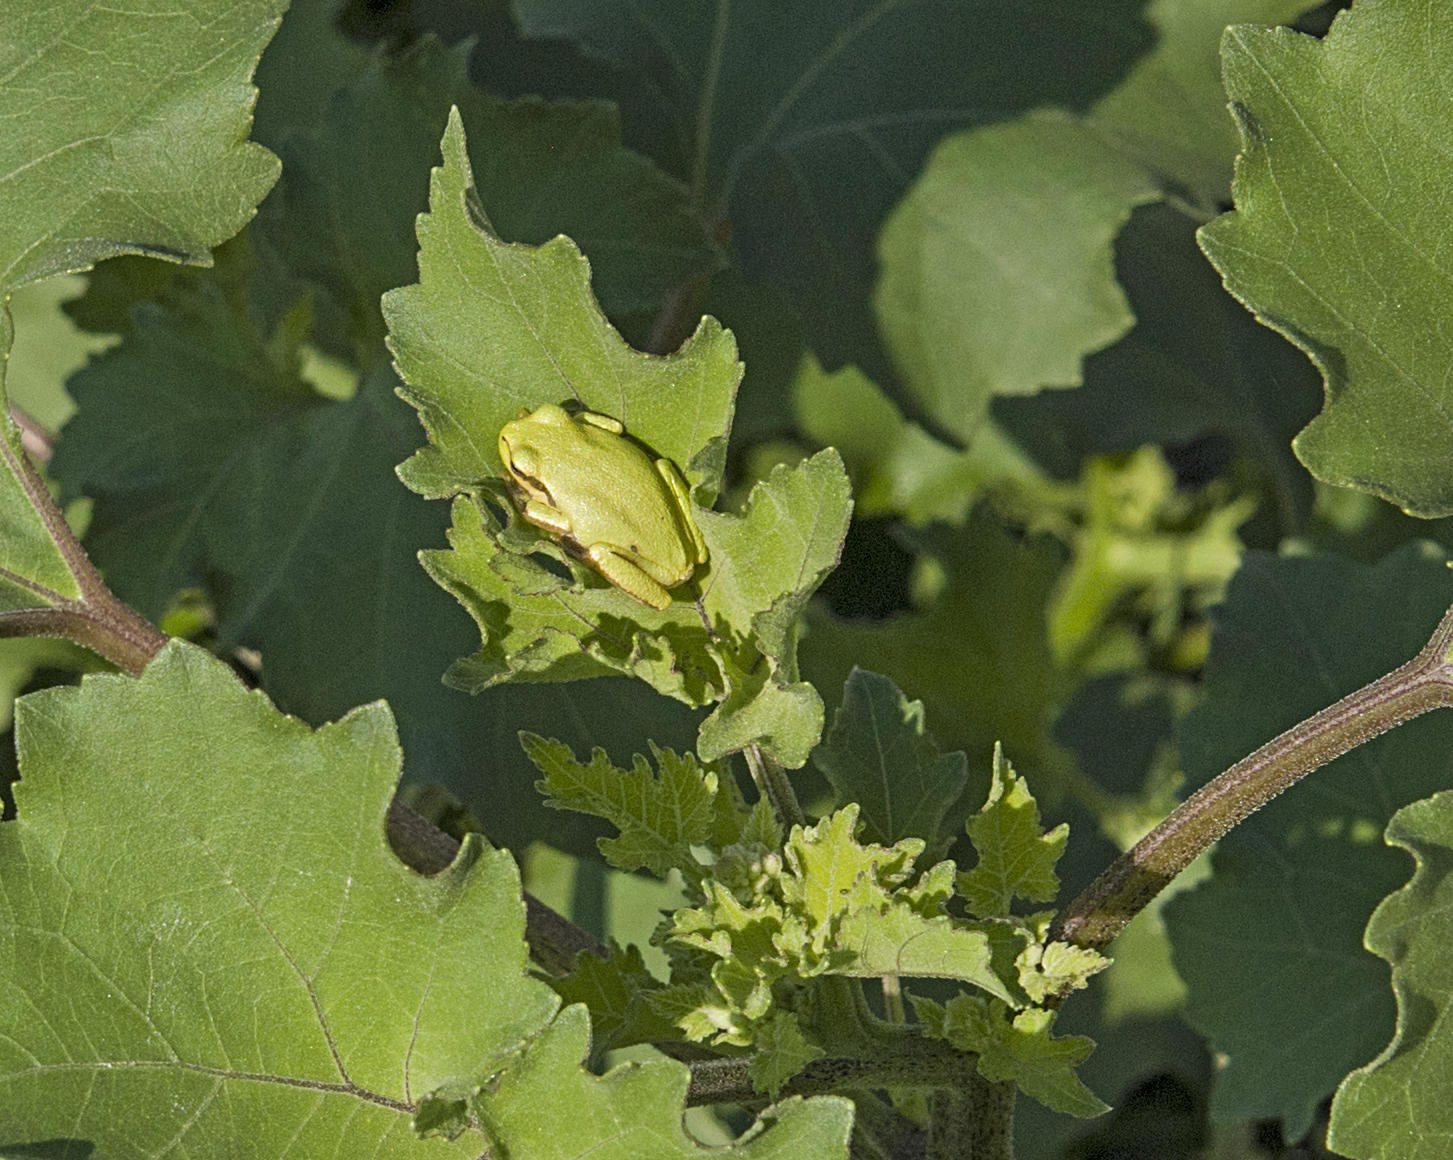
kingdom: Animalia
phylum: Chordata
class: Amphibia
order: Anura
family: Hylidae
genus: Hyla
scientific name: Hyla orientalis
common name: Caucasian treefrog
